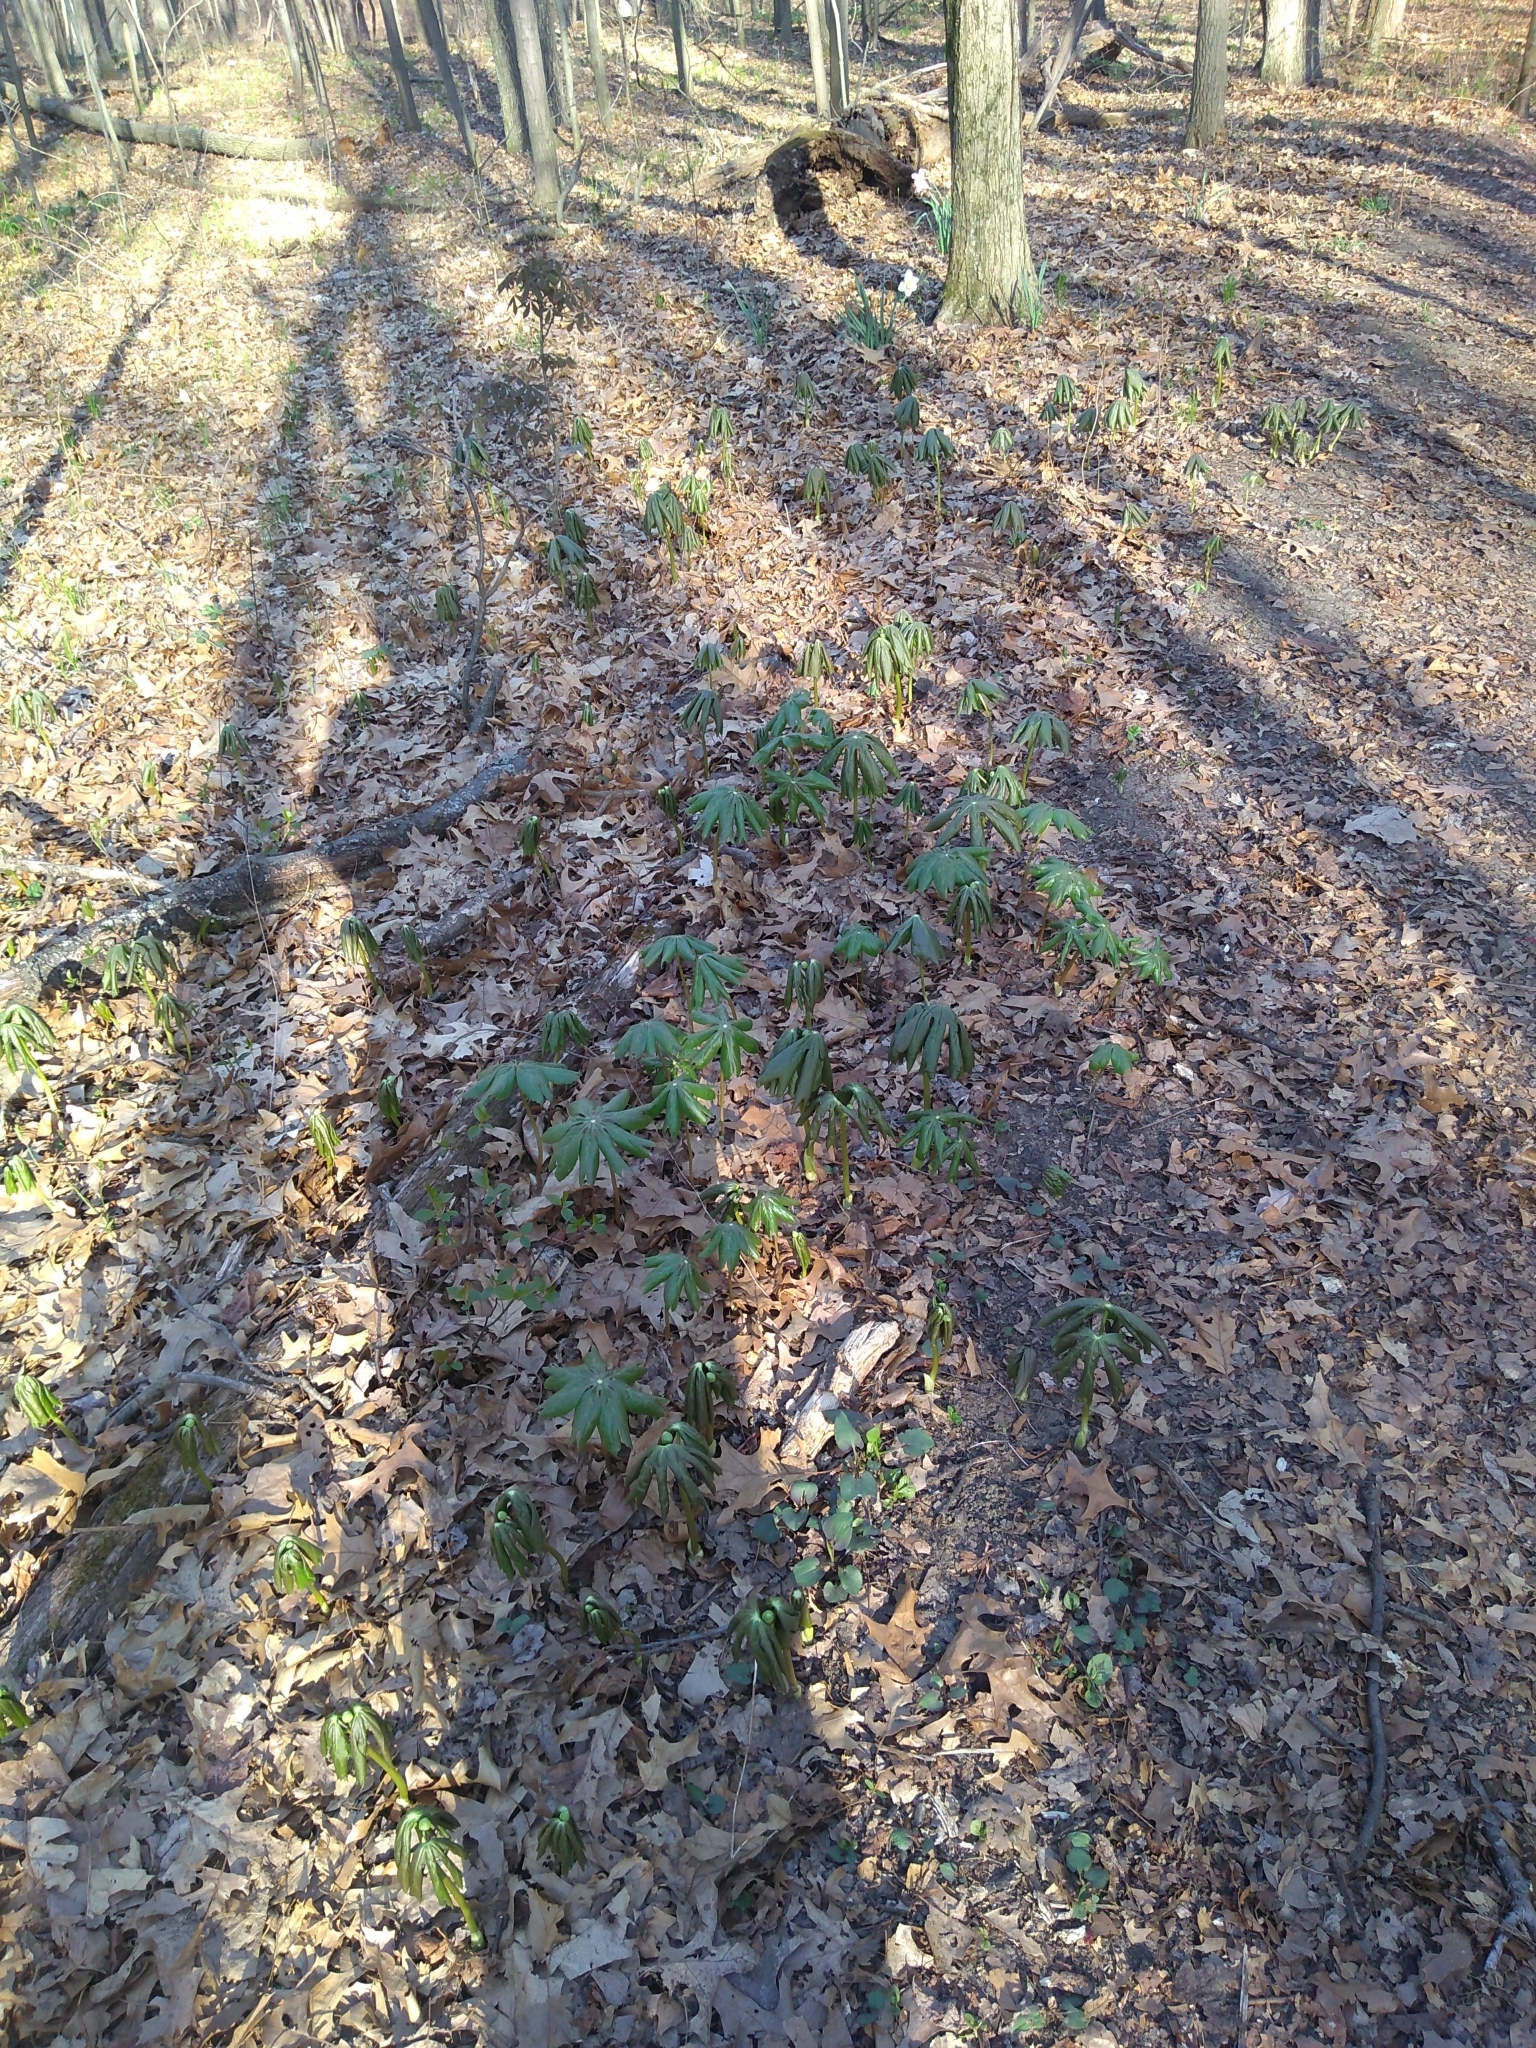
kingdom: Plantae
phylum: Tracheophyta
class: Magnoliopsida
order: Ranunculales
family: Berberidaceae
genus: Podophyllum
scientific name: Podophyllum peltatum
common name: Wild mandrake
